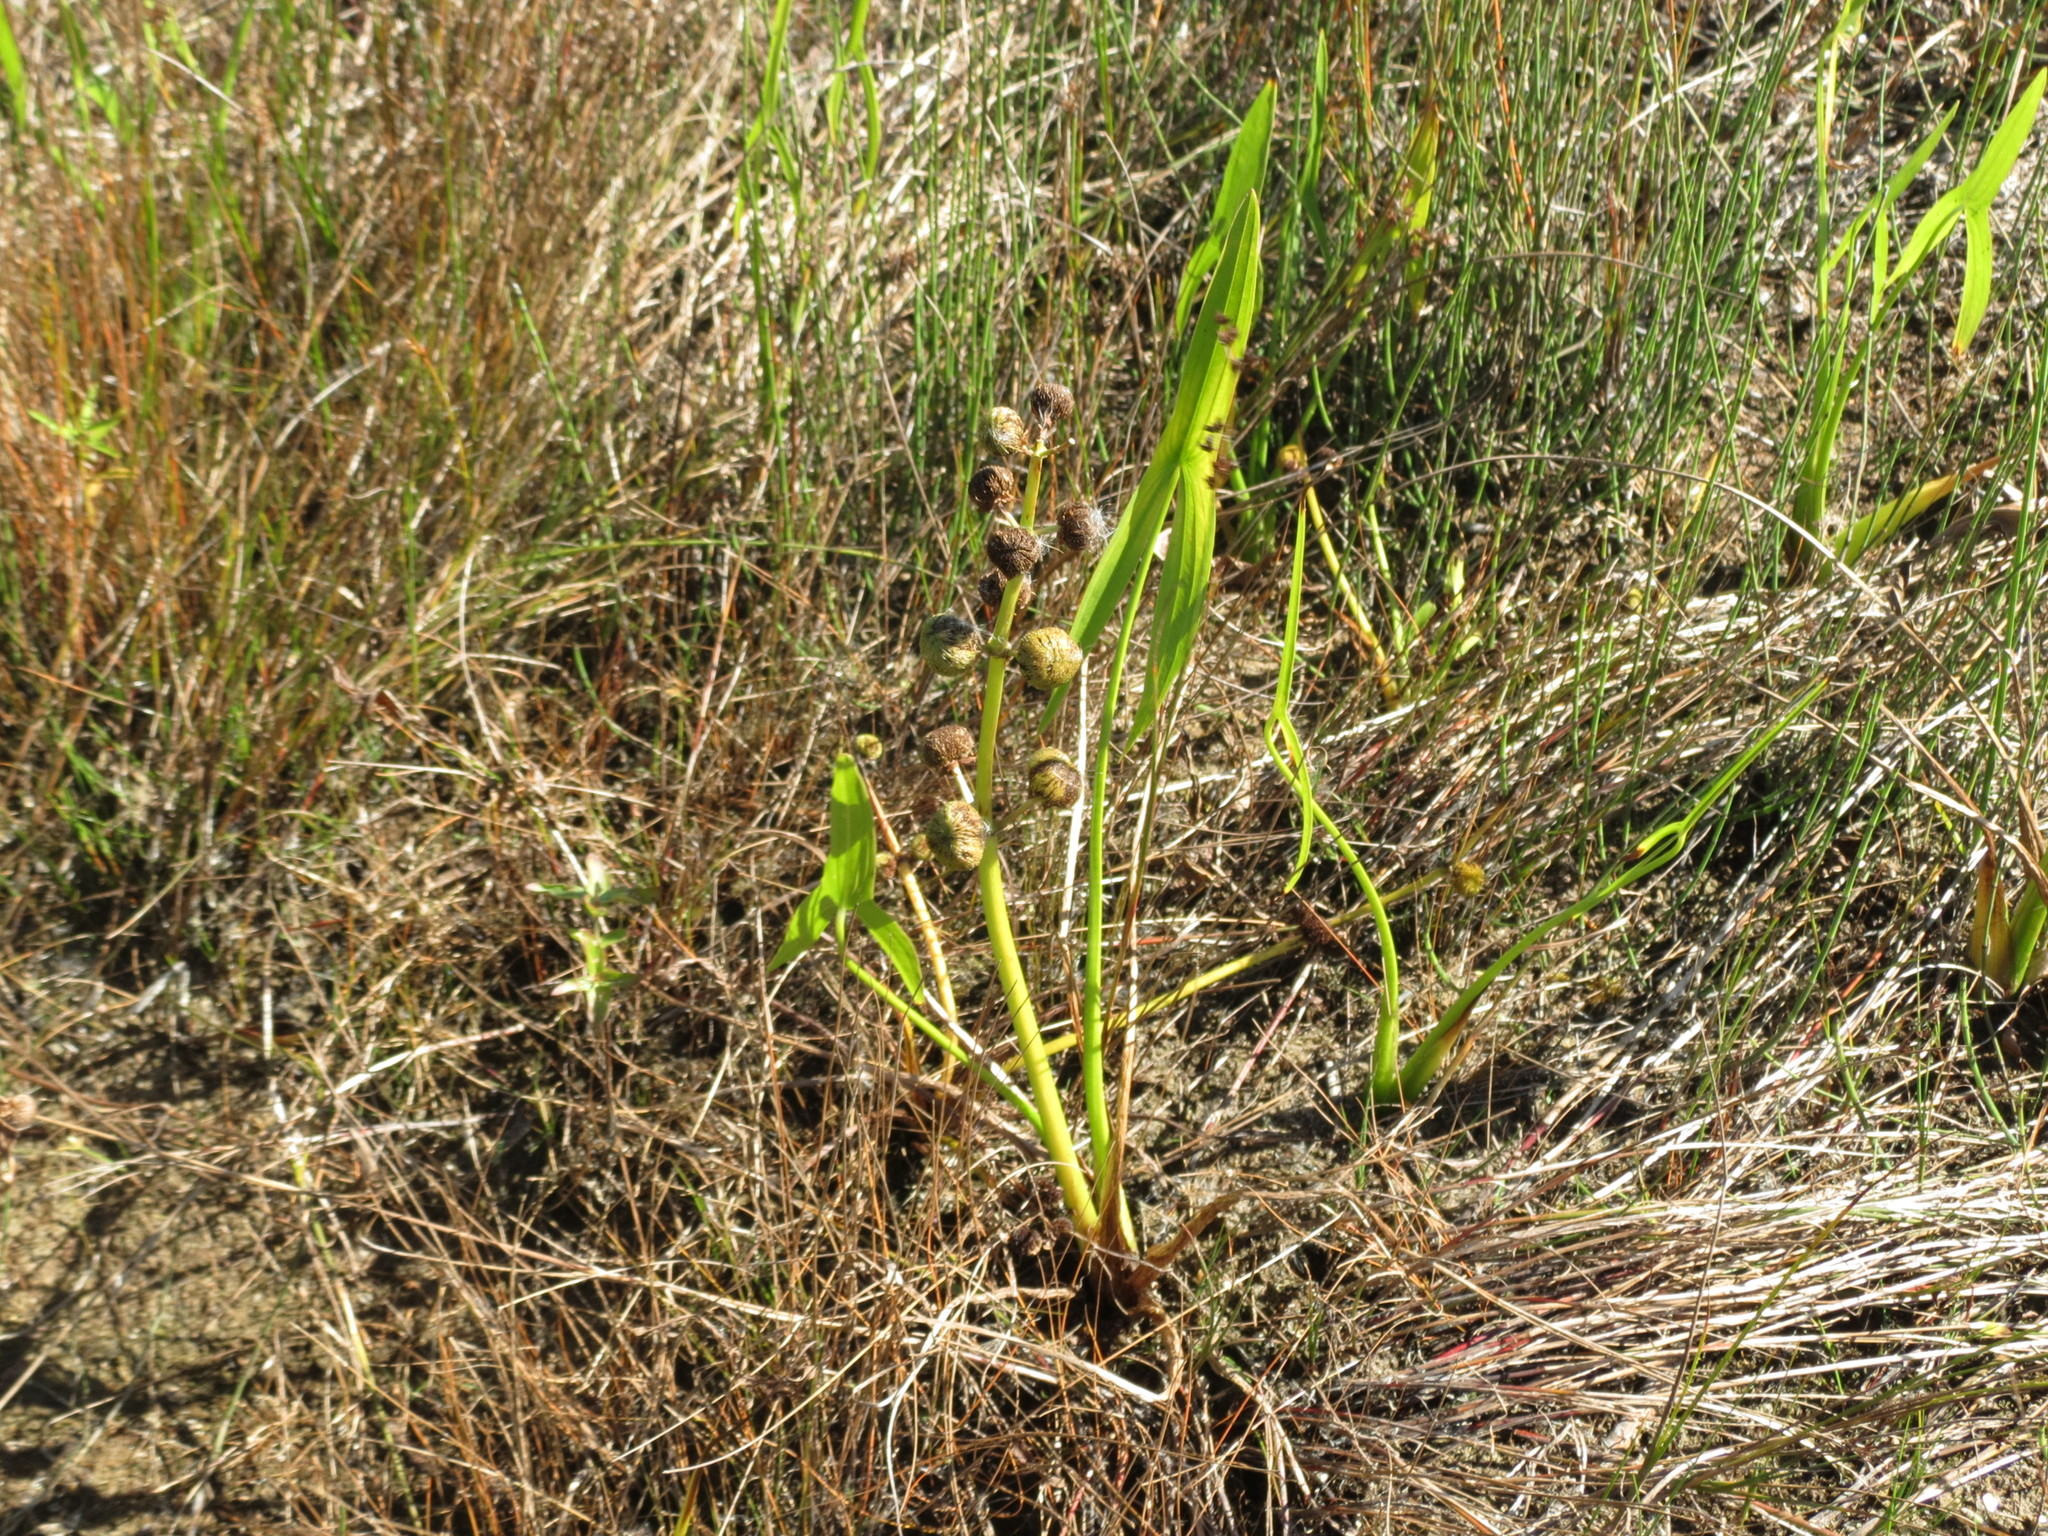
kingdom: Plantae
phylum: Tracheophyta
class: Liliopsida
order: Alismatales
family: Alismataceae
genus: Sagittaria
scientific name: Sagittaria latifolia
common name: Duck-potato
